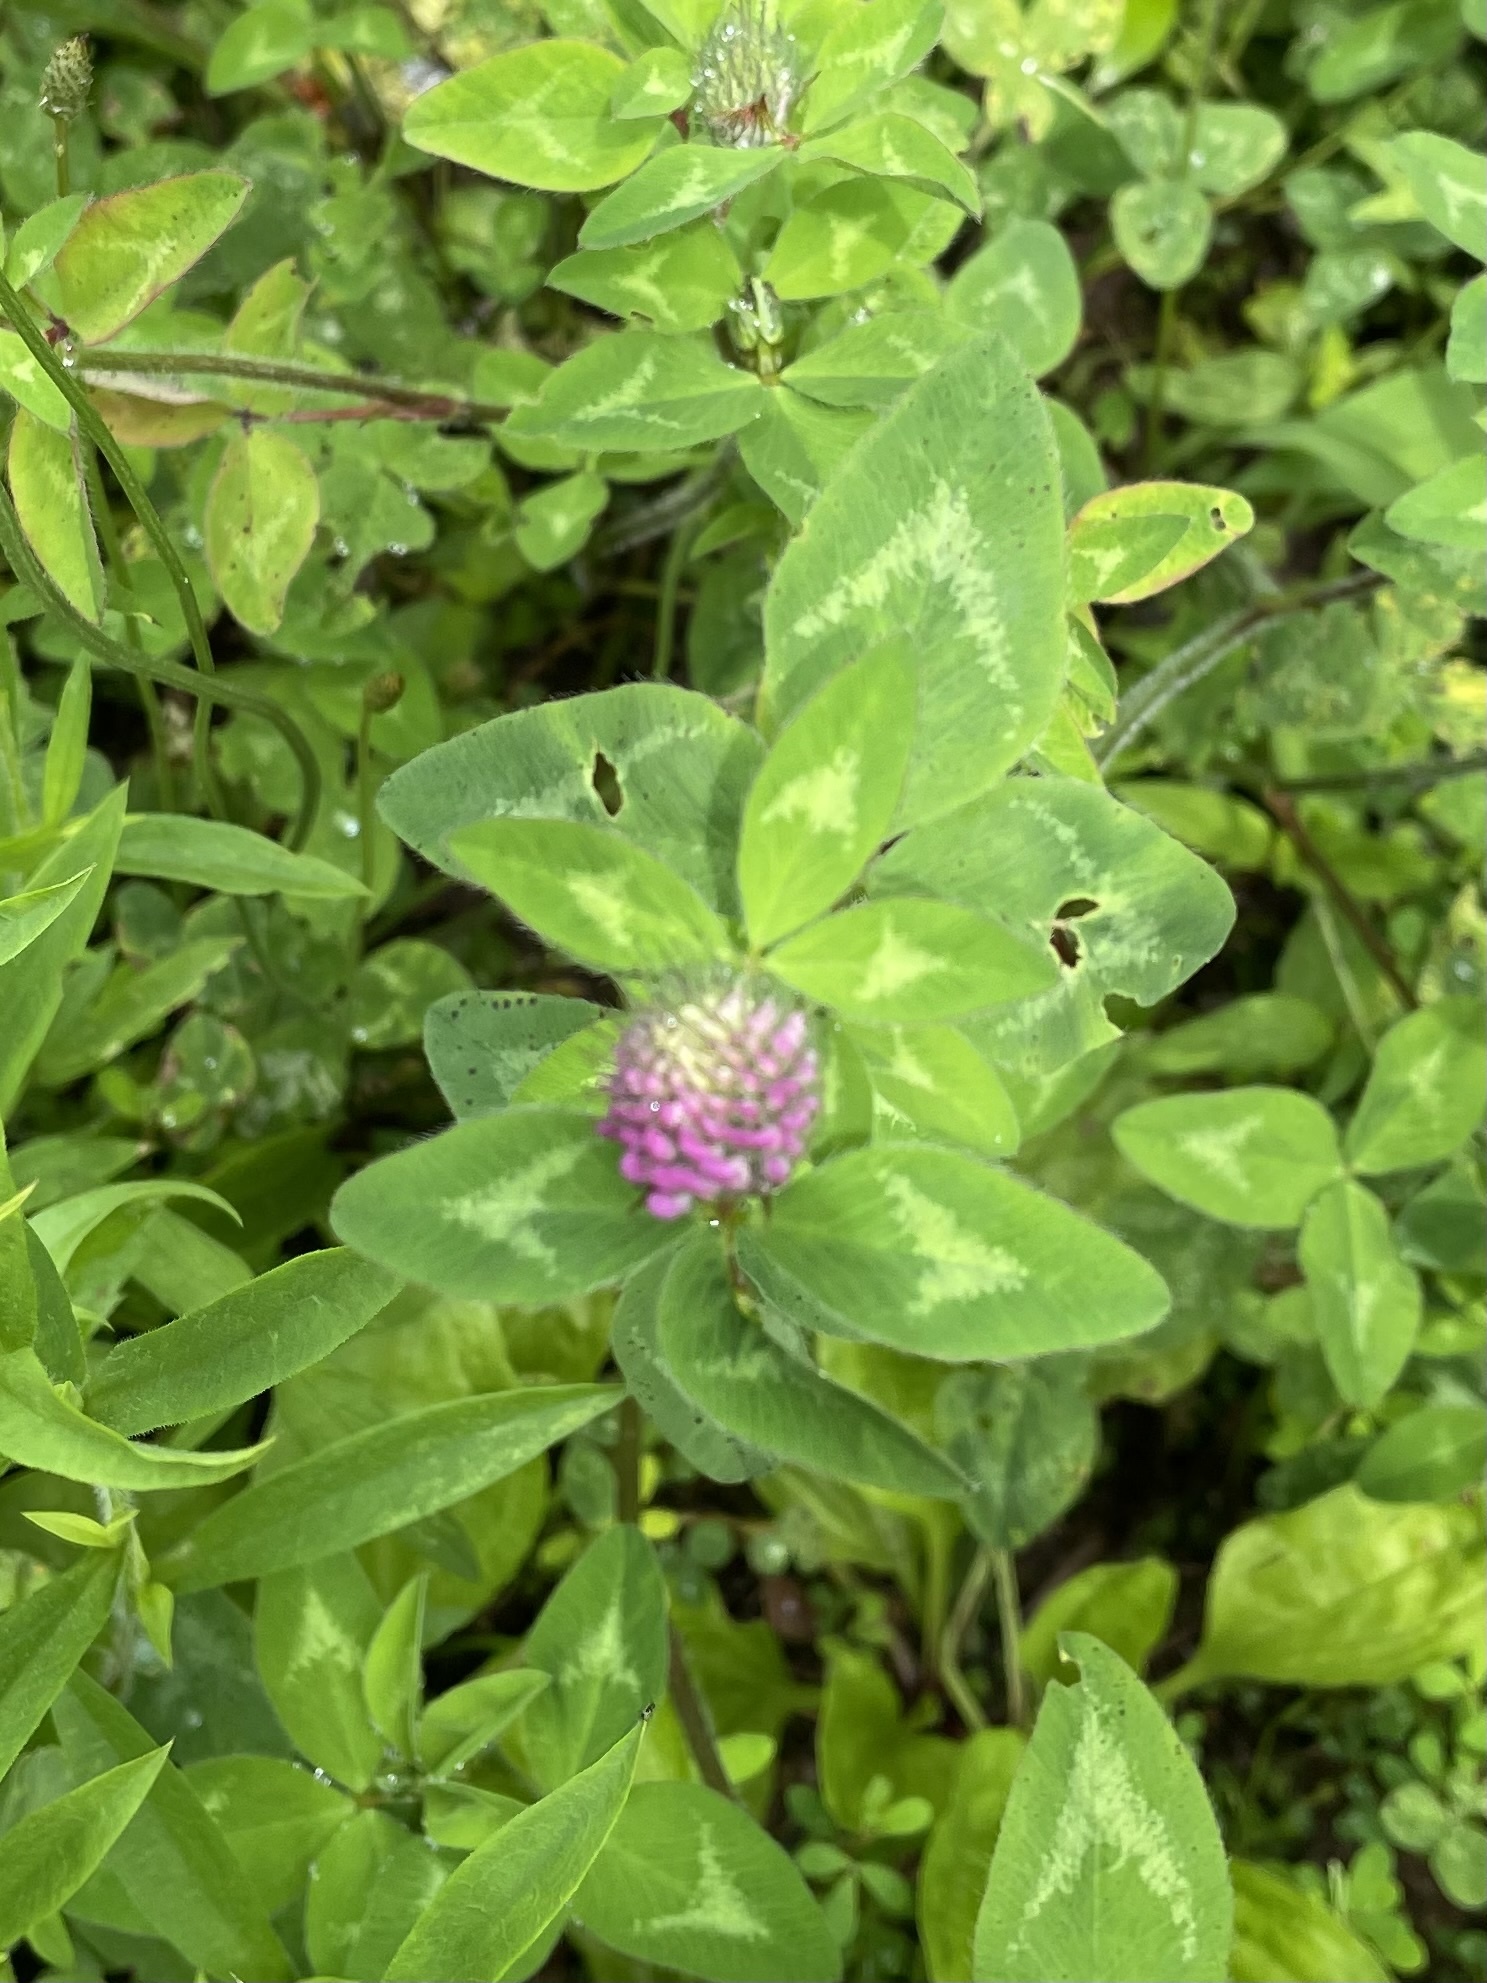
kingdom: Plantae
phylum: Tracheophyta
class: Magnoliopsida
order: Fabales
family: Fabaceae
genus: Trifolium
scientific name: Trifolium pratense
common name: Red clover
